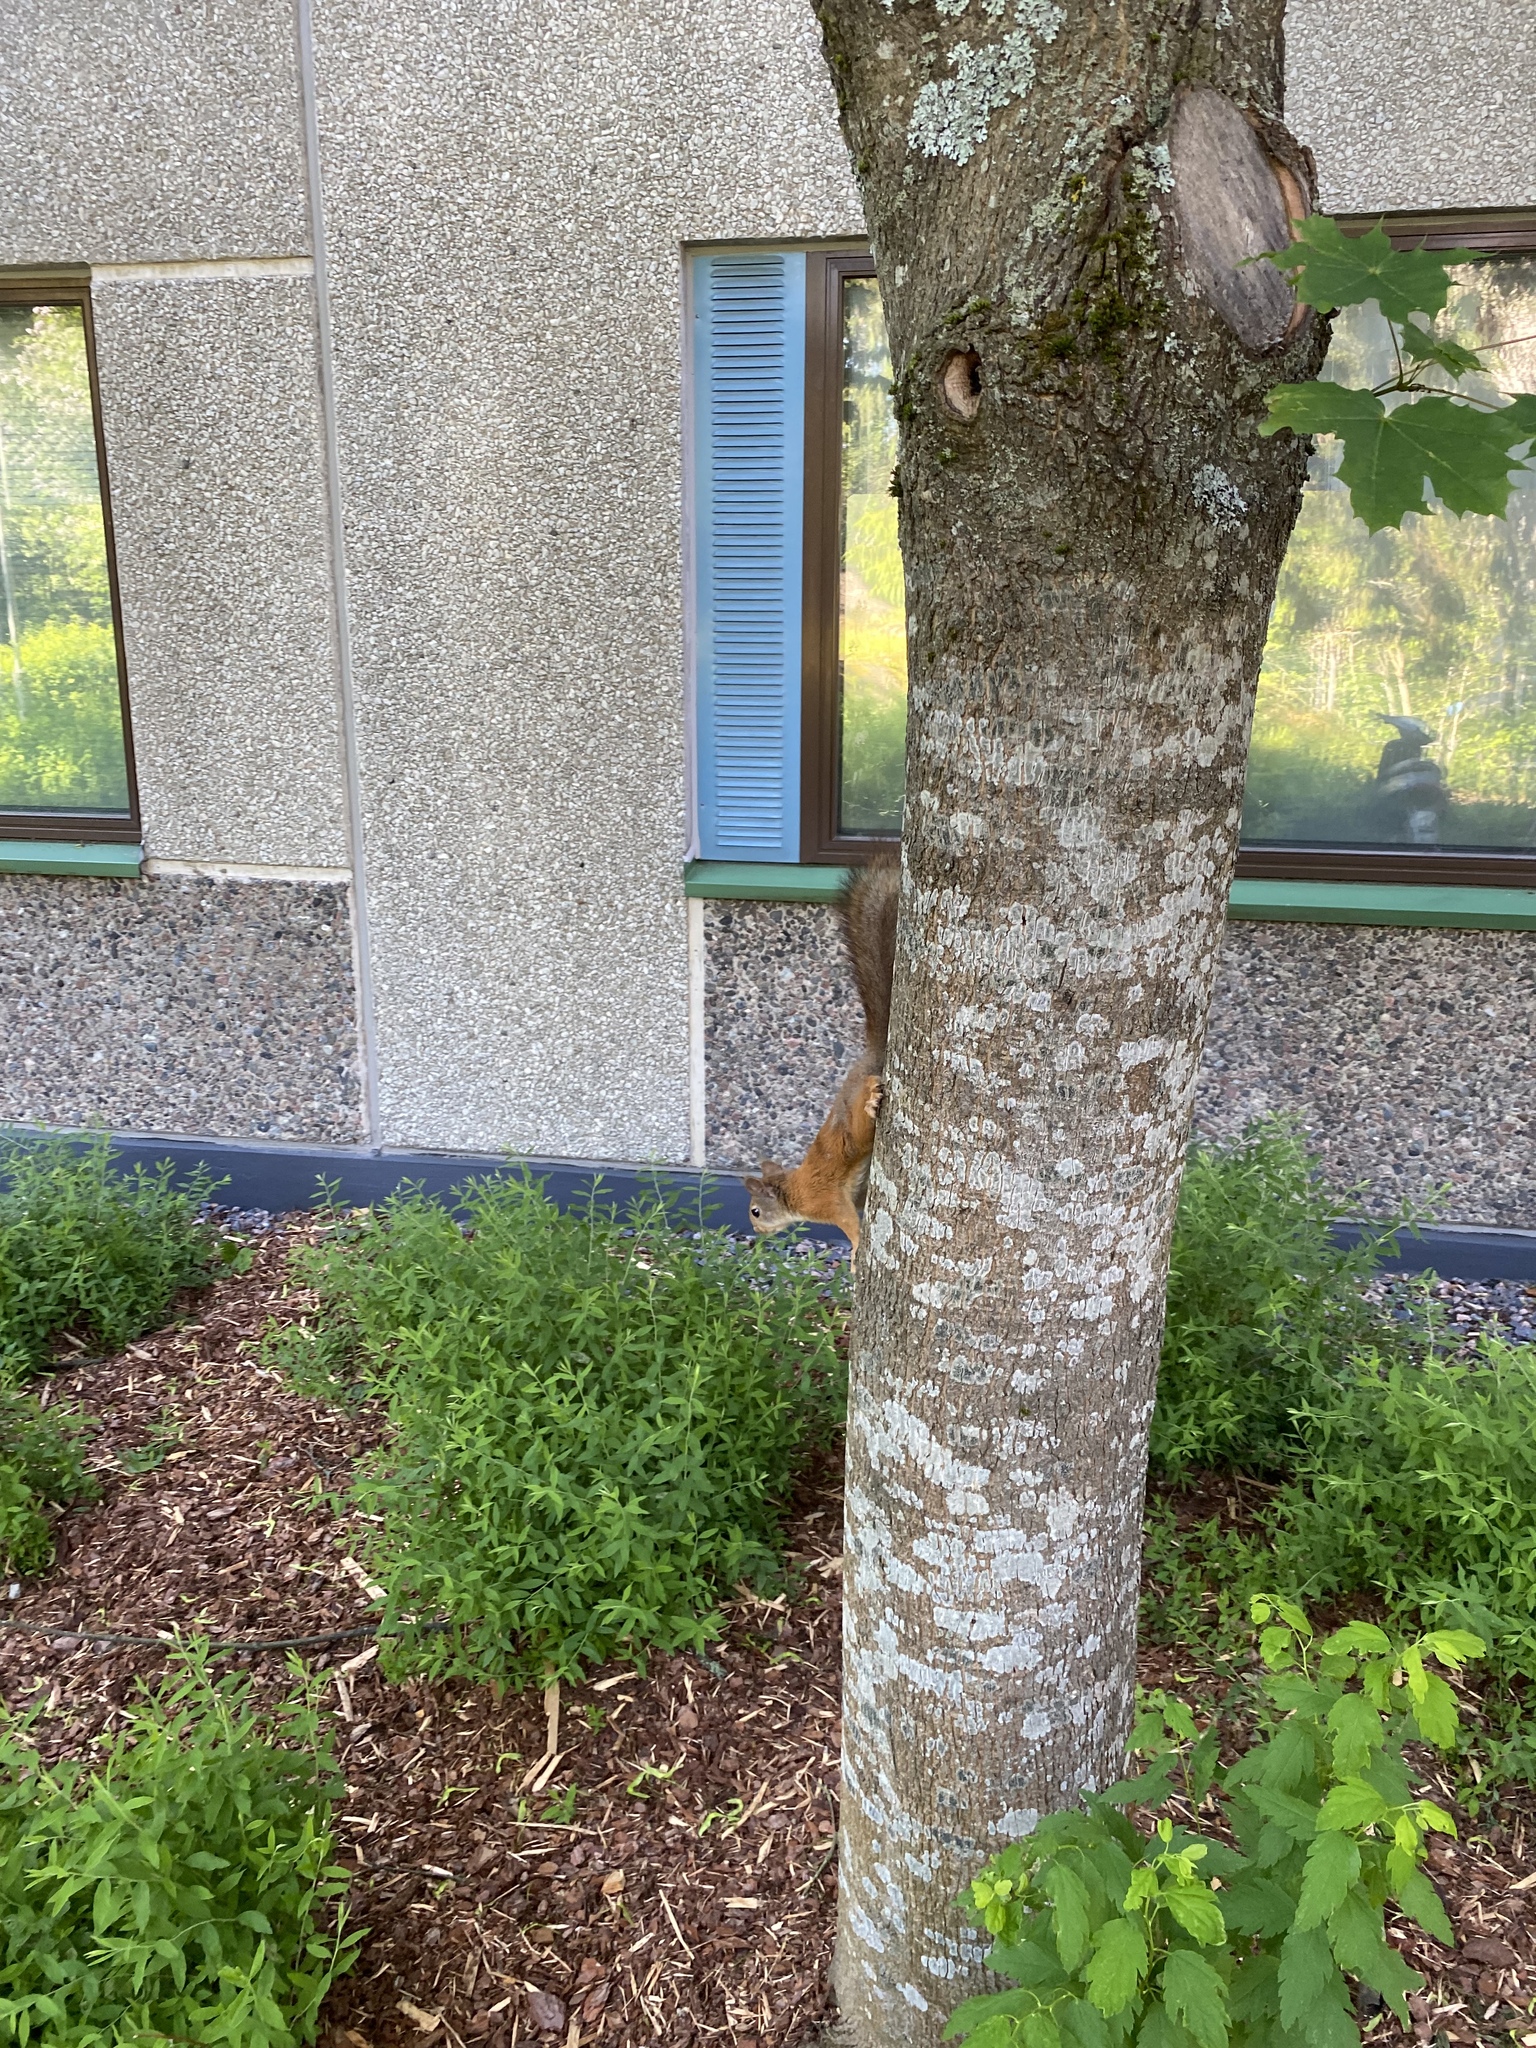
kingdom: Animalia
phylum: Chordata
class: Mammalia
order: Rodentia
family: Sciuridae
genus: Sciurus
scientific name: Sciurus vulgaris
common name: Eurasian red squirrel
